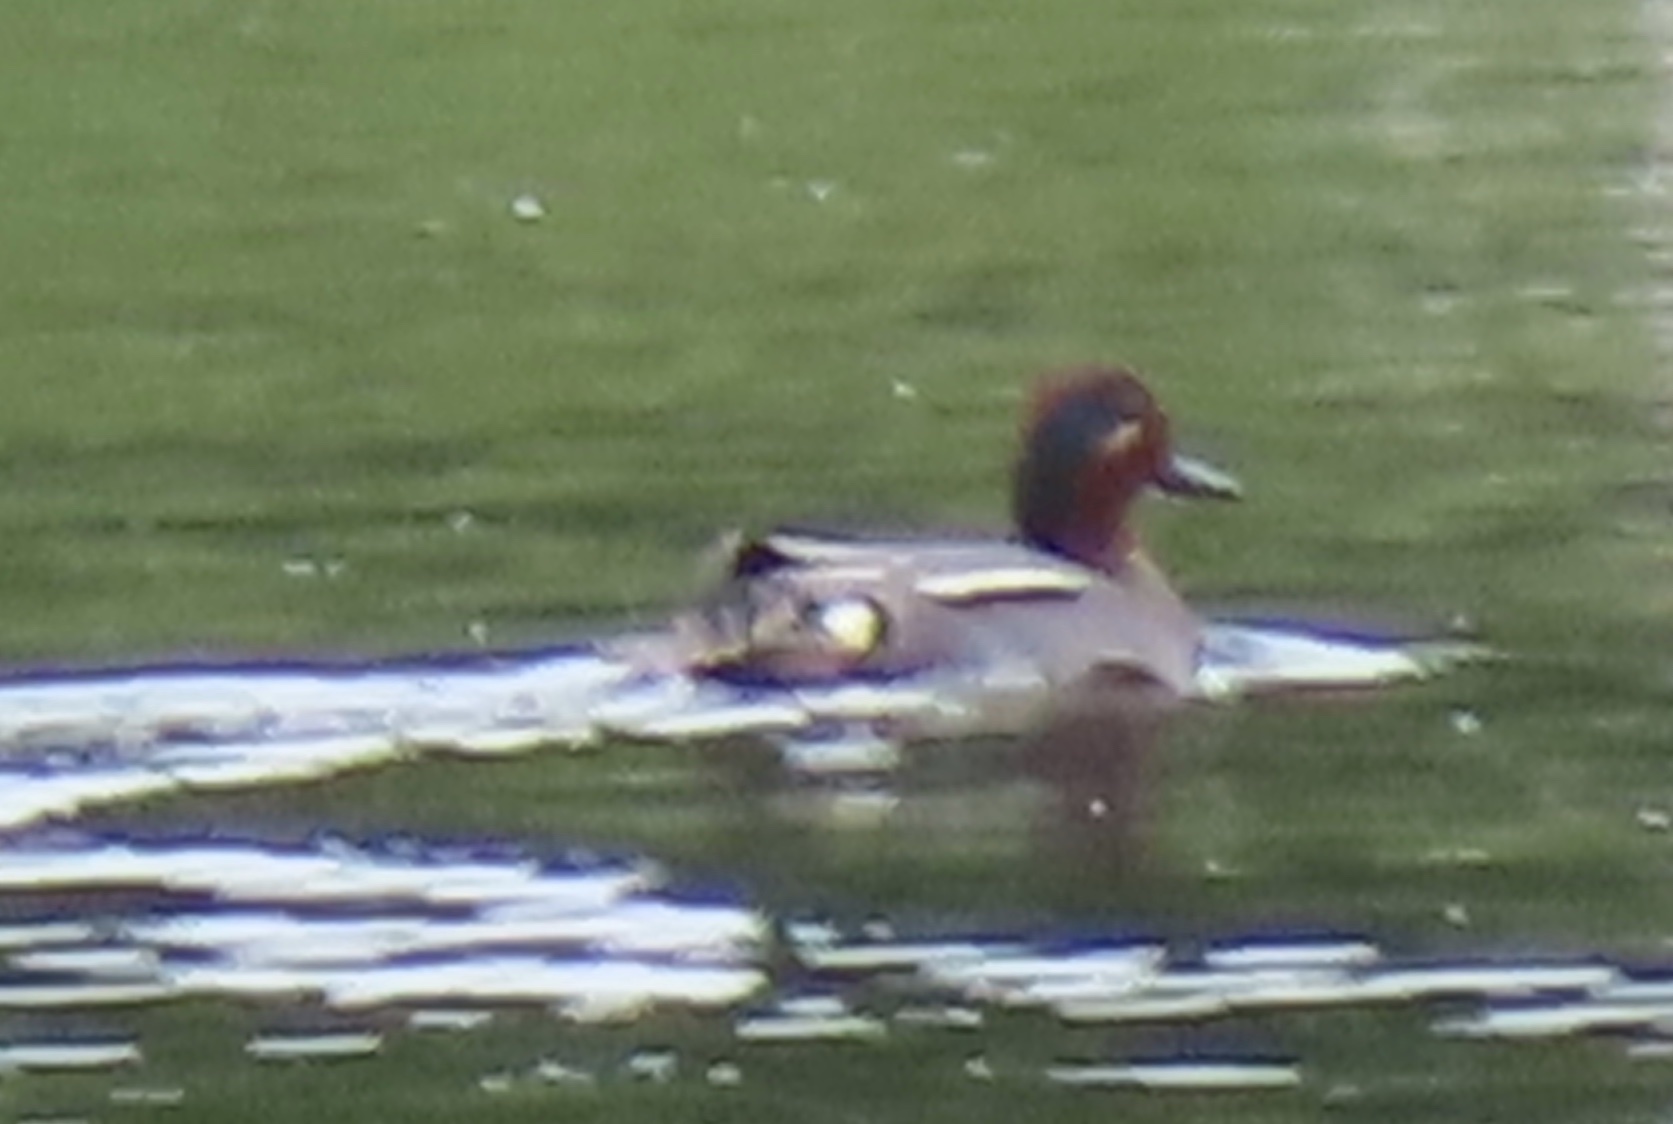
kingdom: Animalia
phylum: Chordata
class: Aves
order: Anseriformes
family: Anatidae
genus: Anas
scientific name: Anas crecca
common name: Eurasian teal
